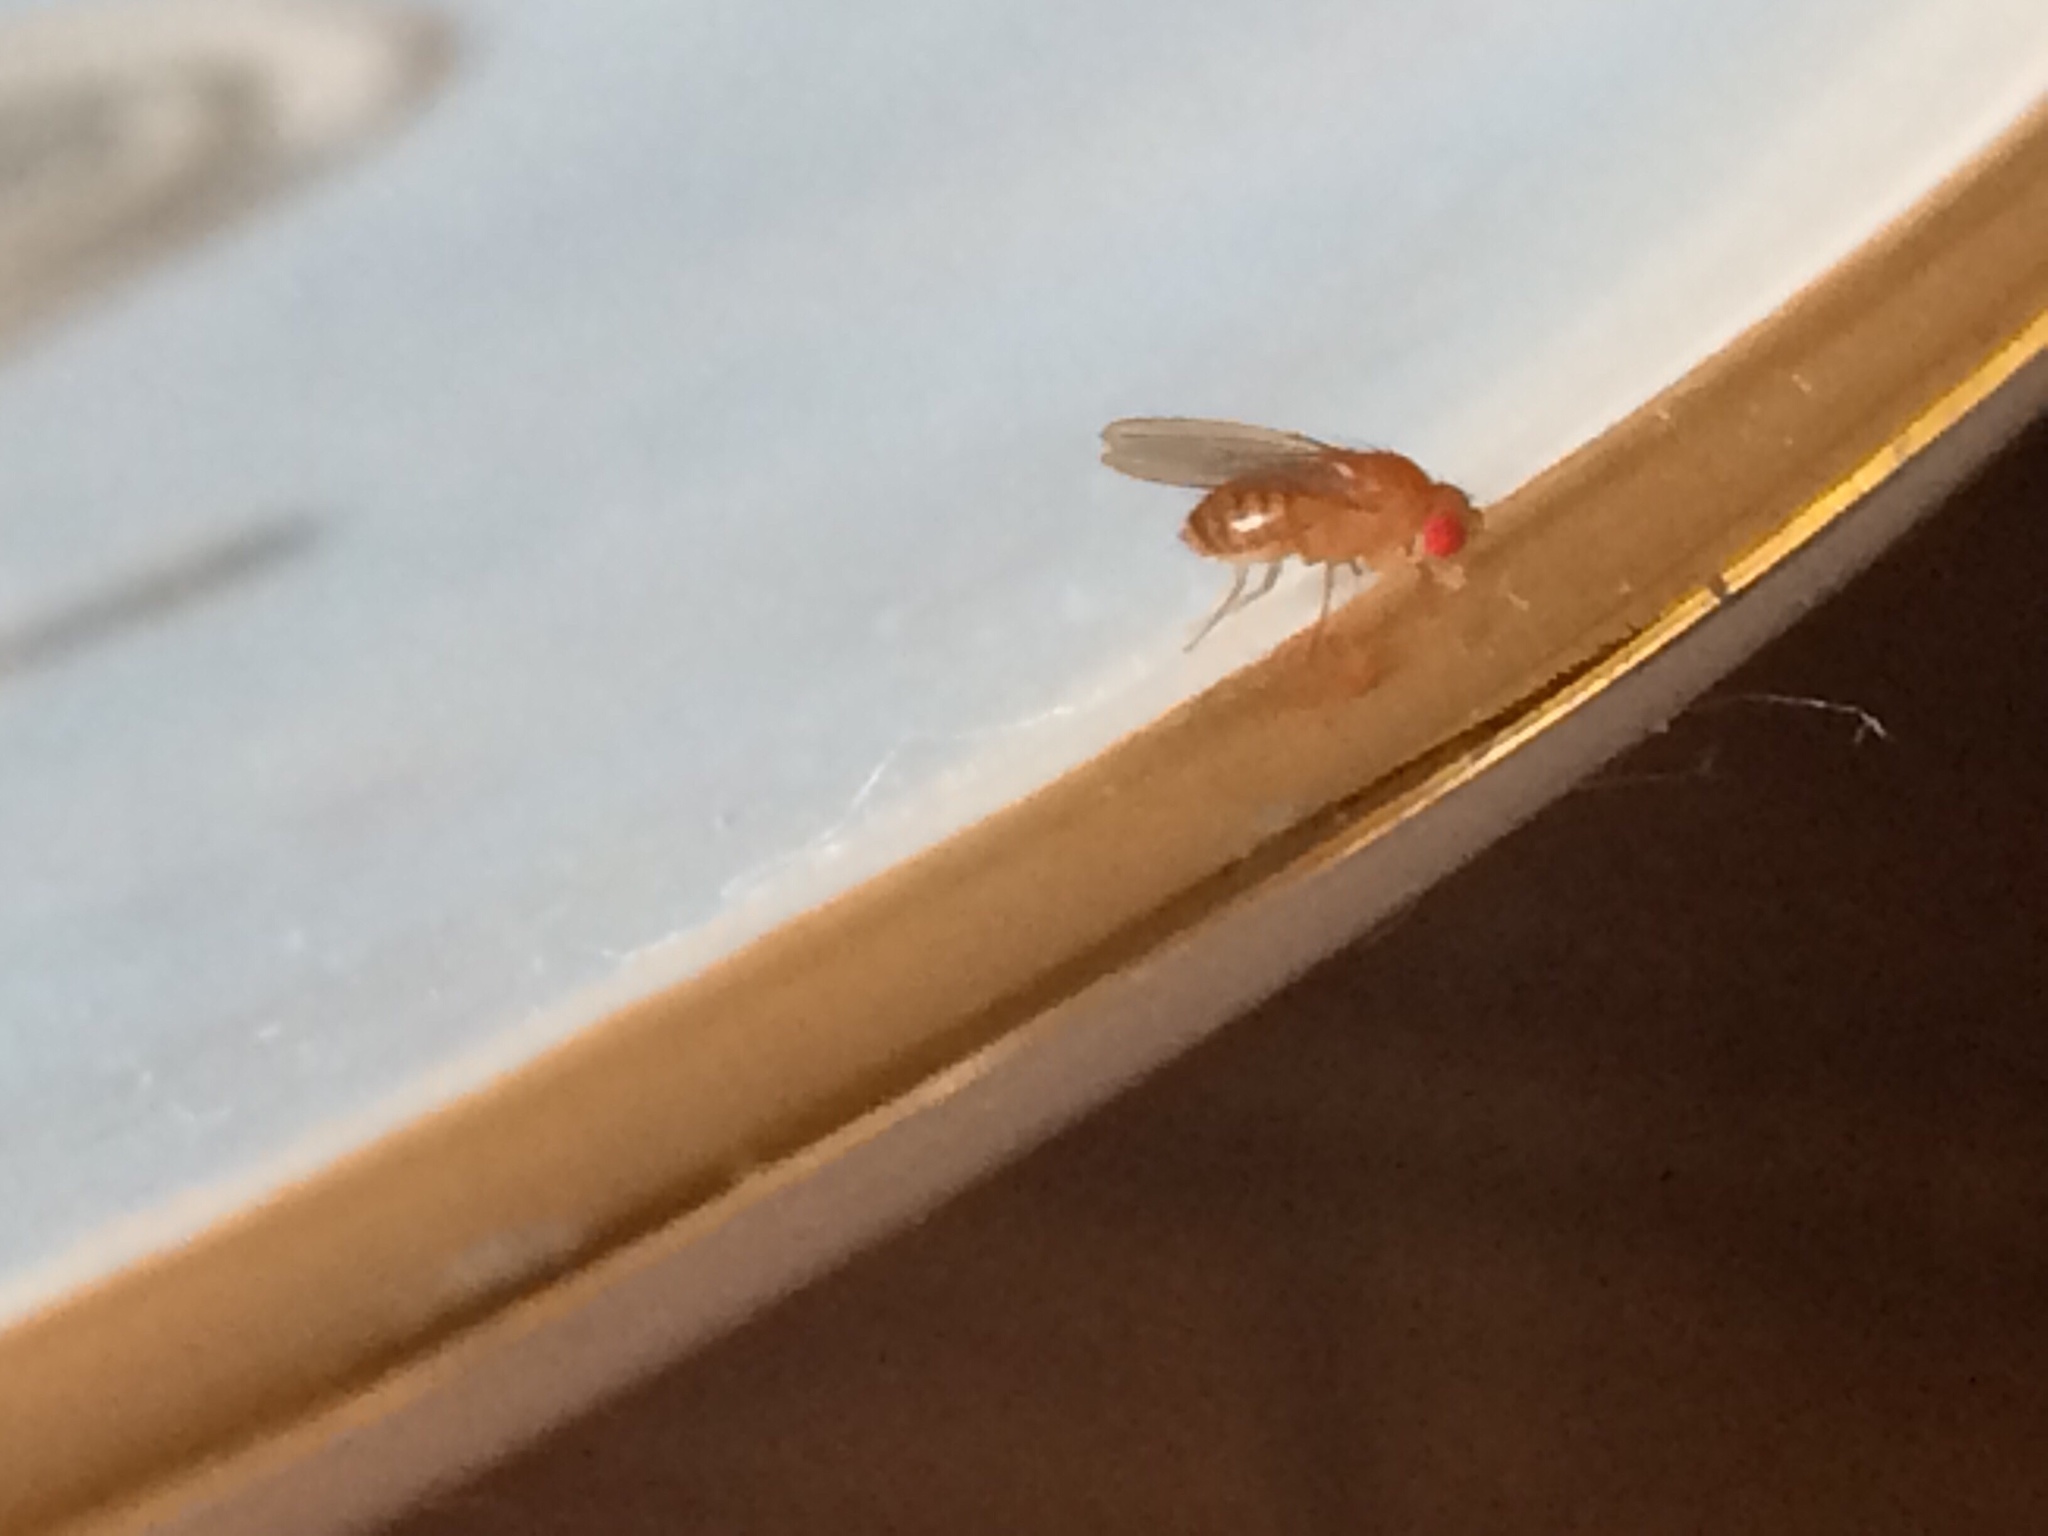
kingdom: Animalia
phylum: Arthropoda
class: Insecta
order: Diptera
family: Drosophilidae
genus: Drosophila
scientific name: Drosophila
